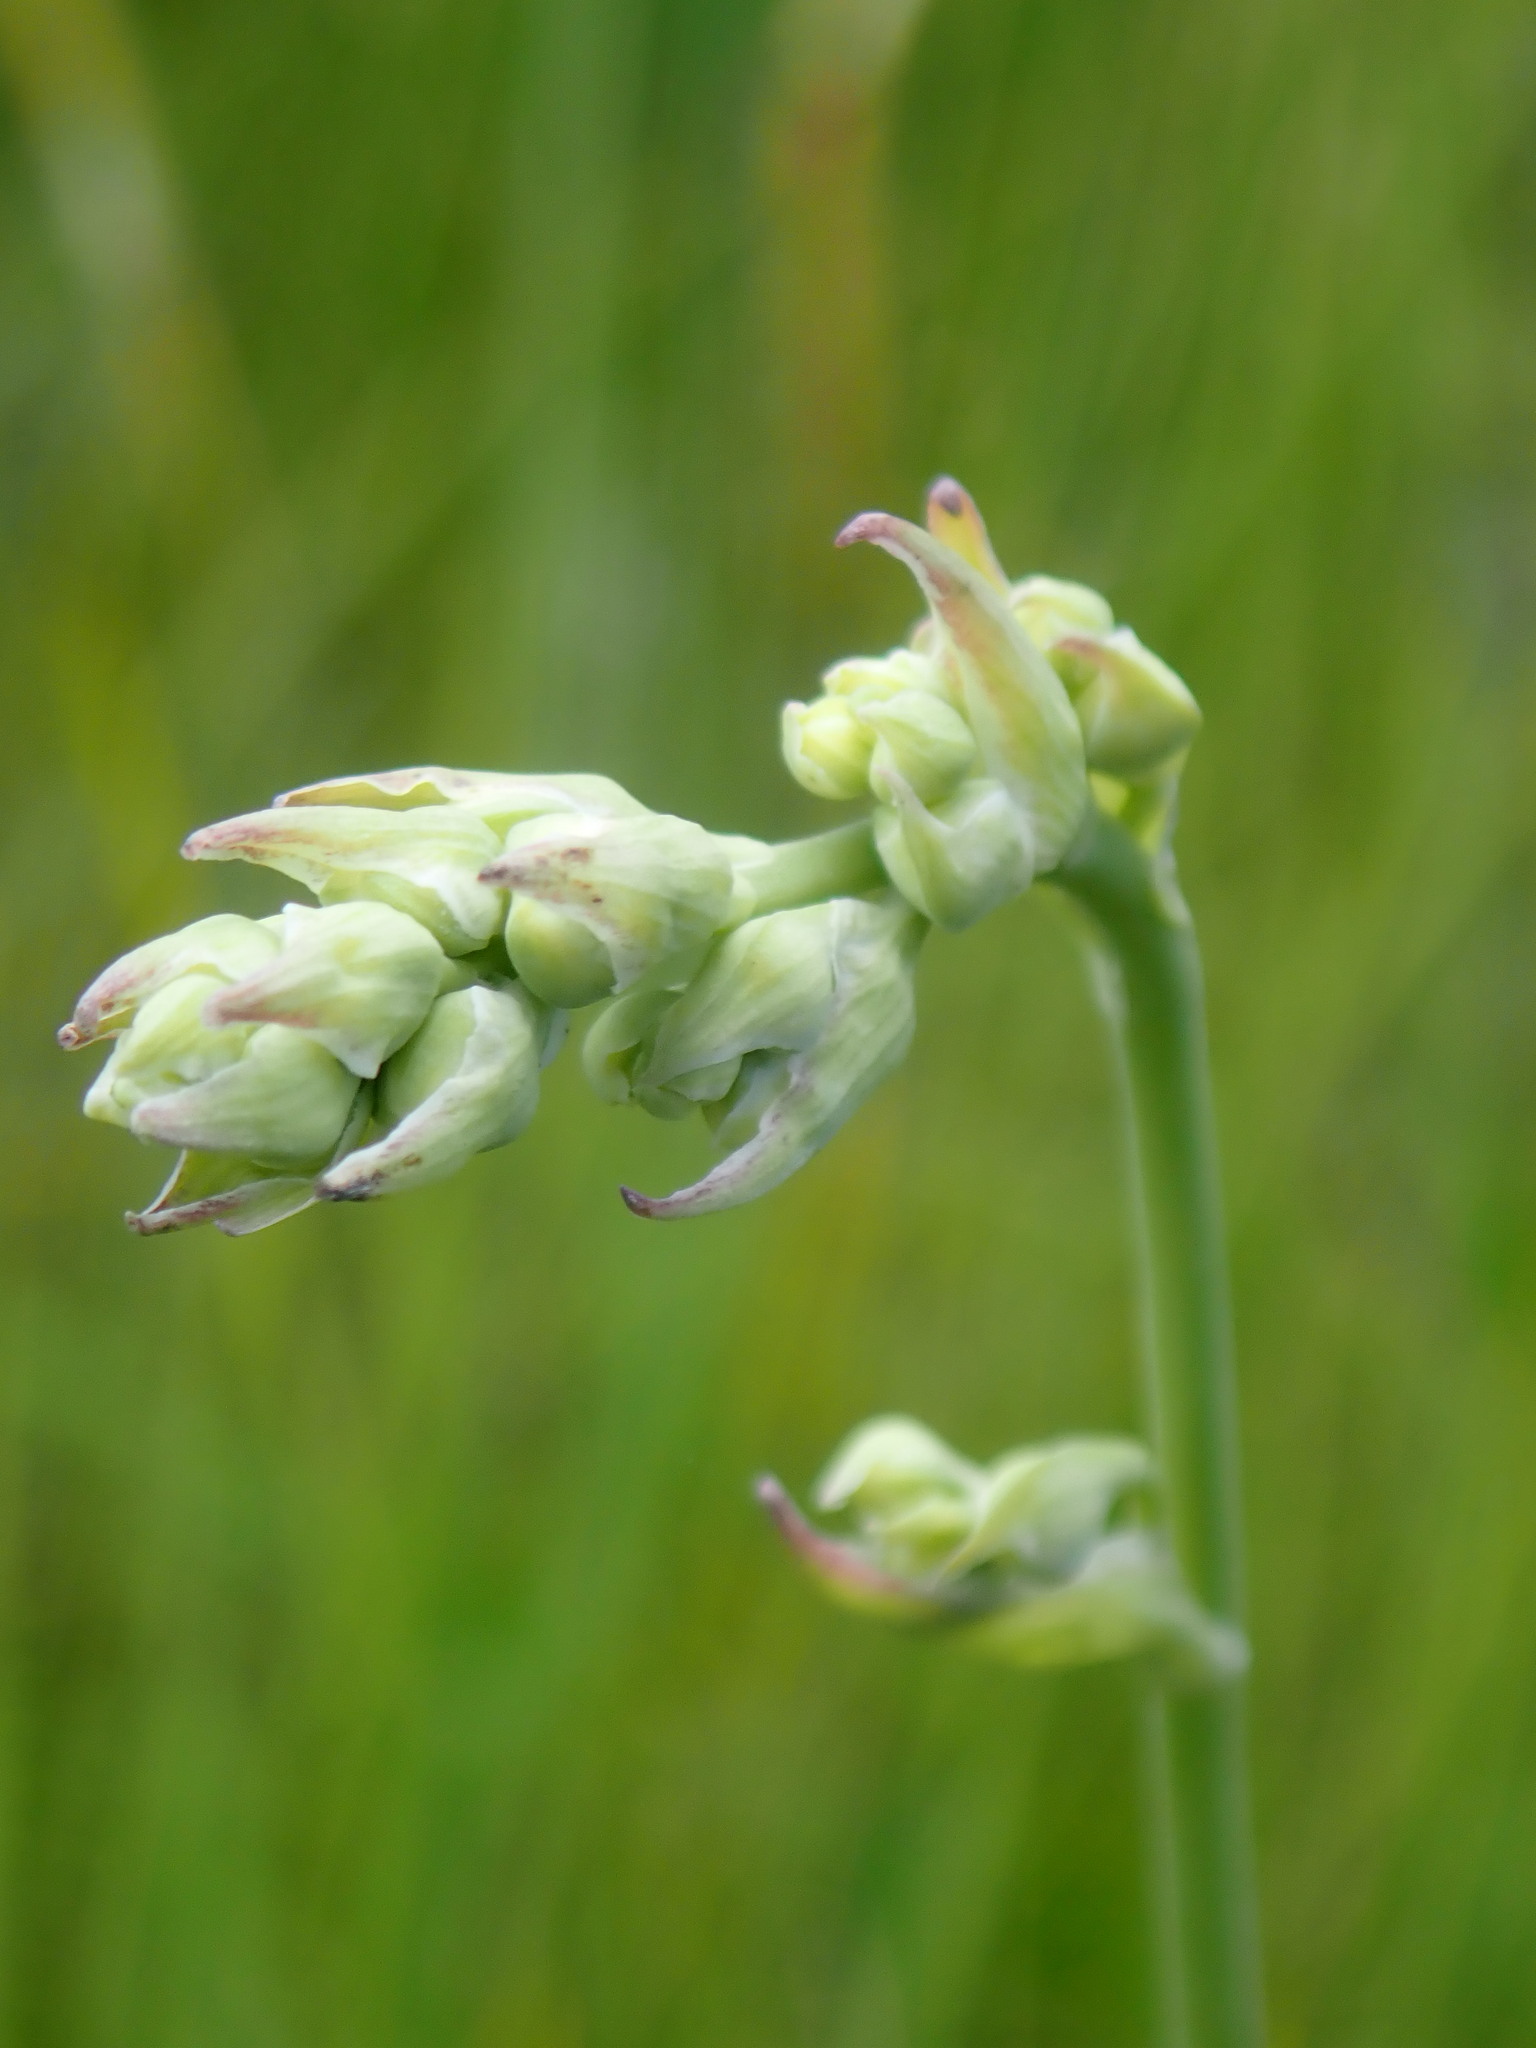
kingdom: Plantae
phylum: Tracheophyta
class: Liliopsida
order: Liliales
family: Melanthiaceae
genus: Anticlea
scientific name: Anticlea elegans
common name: Mountain death camas
